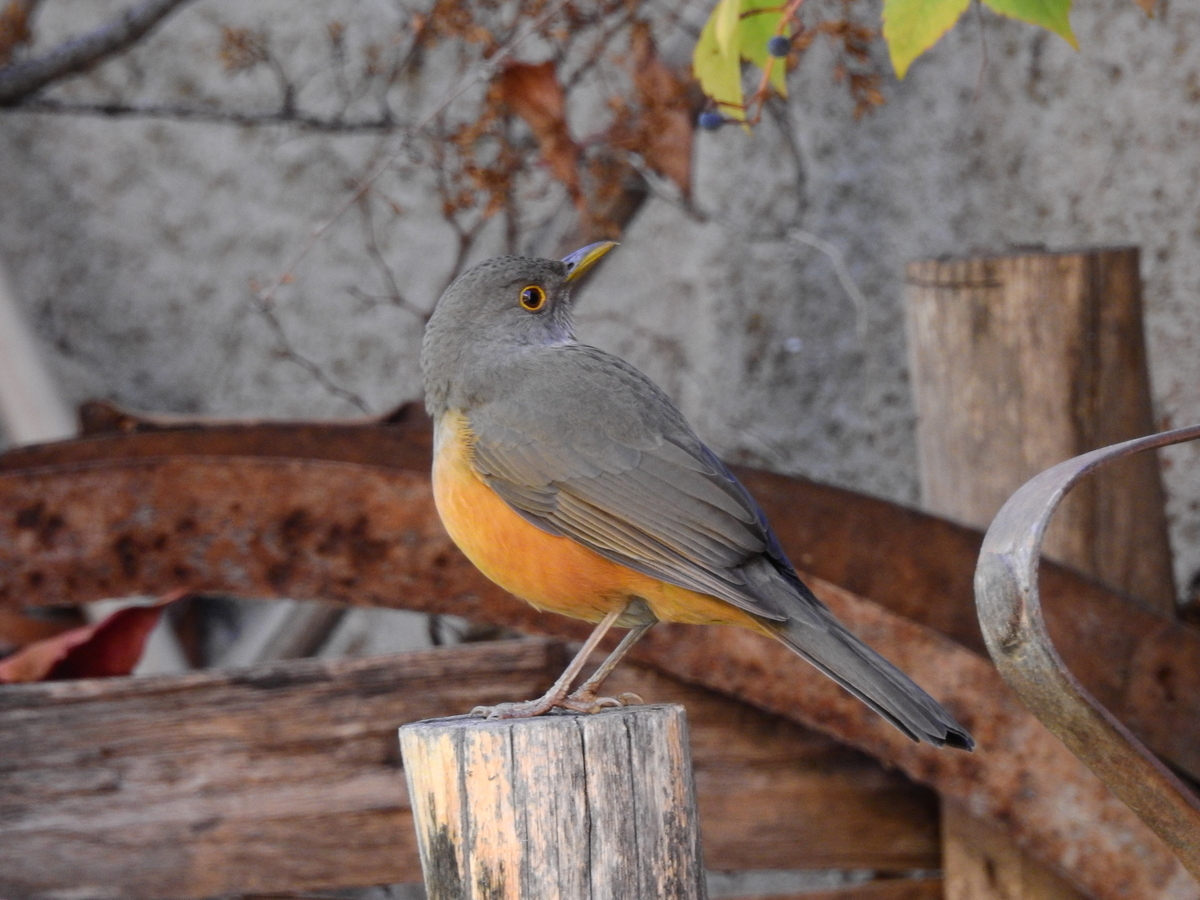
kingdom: Animalia
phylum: Chordata
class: Aves
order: Passeriformes
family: Turdidae
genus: Turdus
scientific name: Turdus rufiventris
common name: Rufous-bellied thrush
